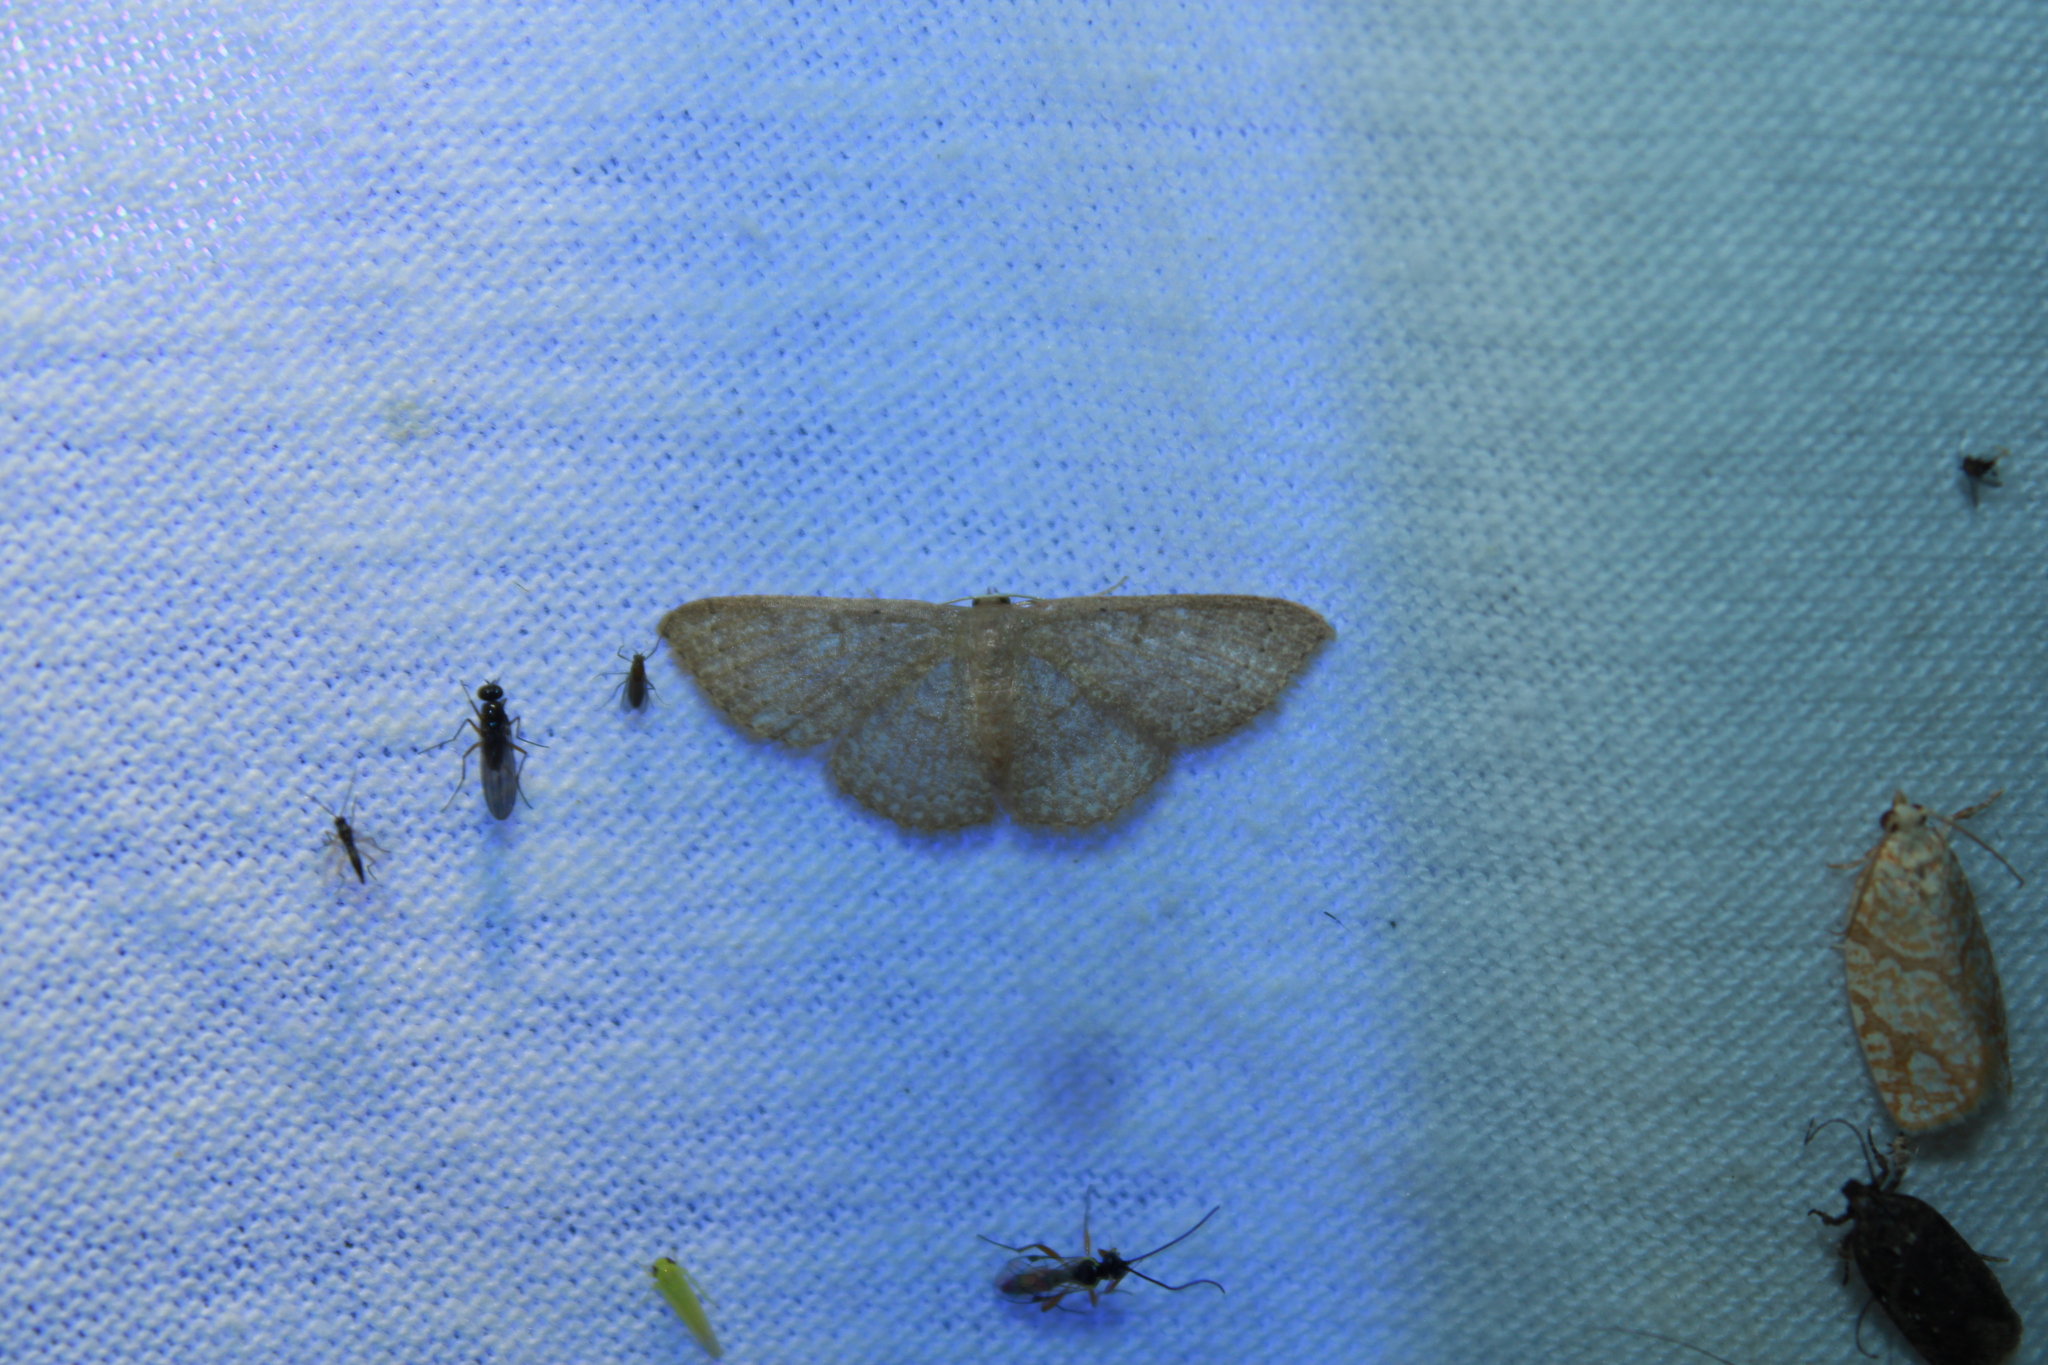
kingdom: Animalia
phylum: Arthropoda
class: Insecta
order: Lepidoptera
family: Geometridae
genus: Pleuroprucha
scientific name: Pleuroprucha insulsaria
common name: Common tan wave
